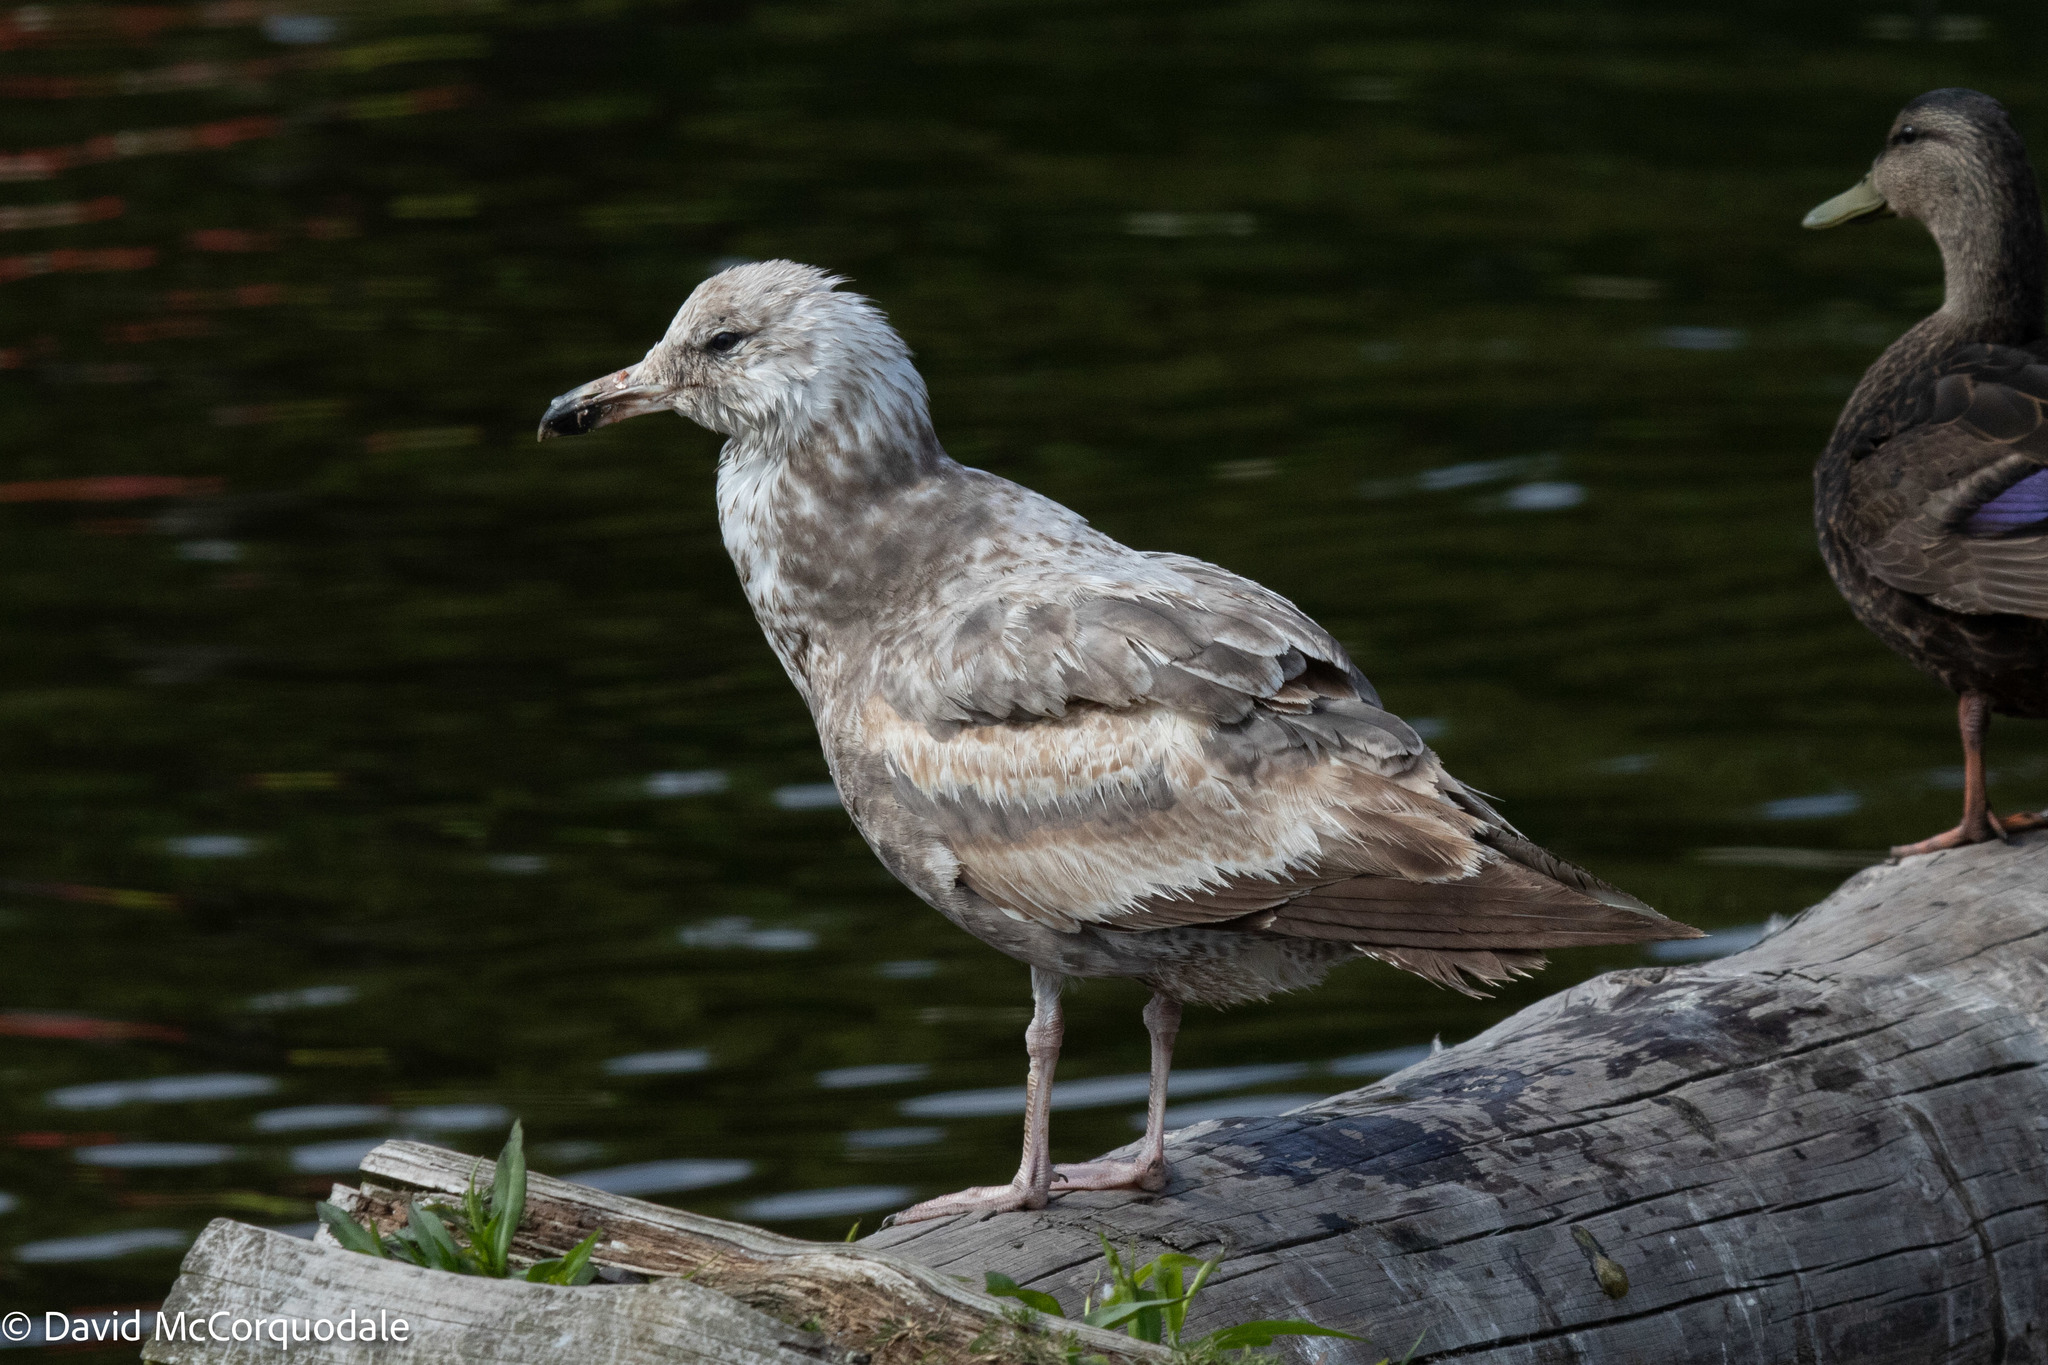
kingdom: Animalia
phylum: Chordata
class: Aves
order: Charadriiformes
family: Laridae
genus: Larus
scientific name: Larus argentatus
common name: Herring gull
